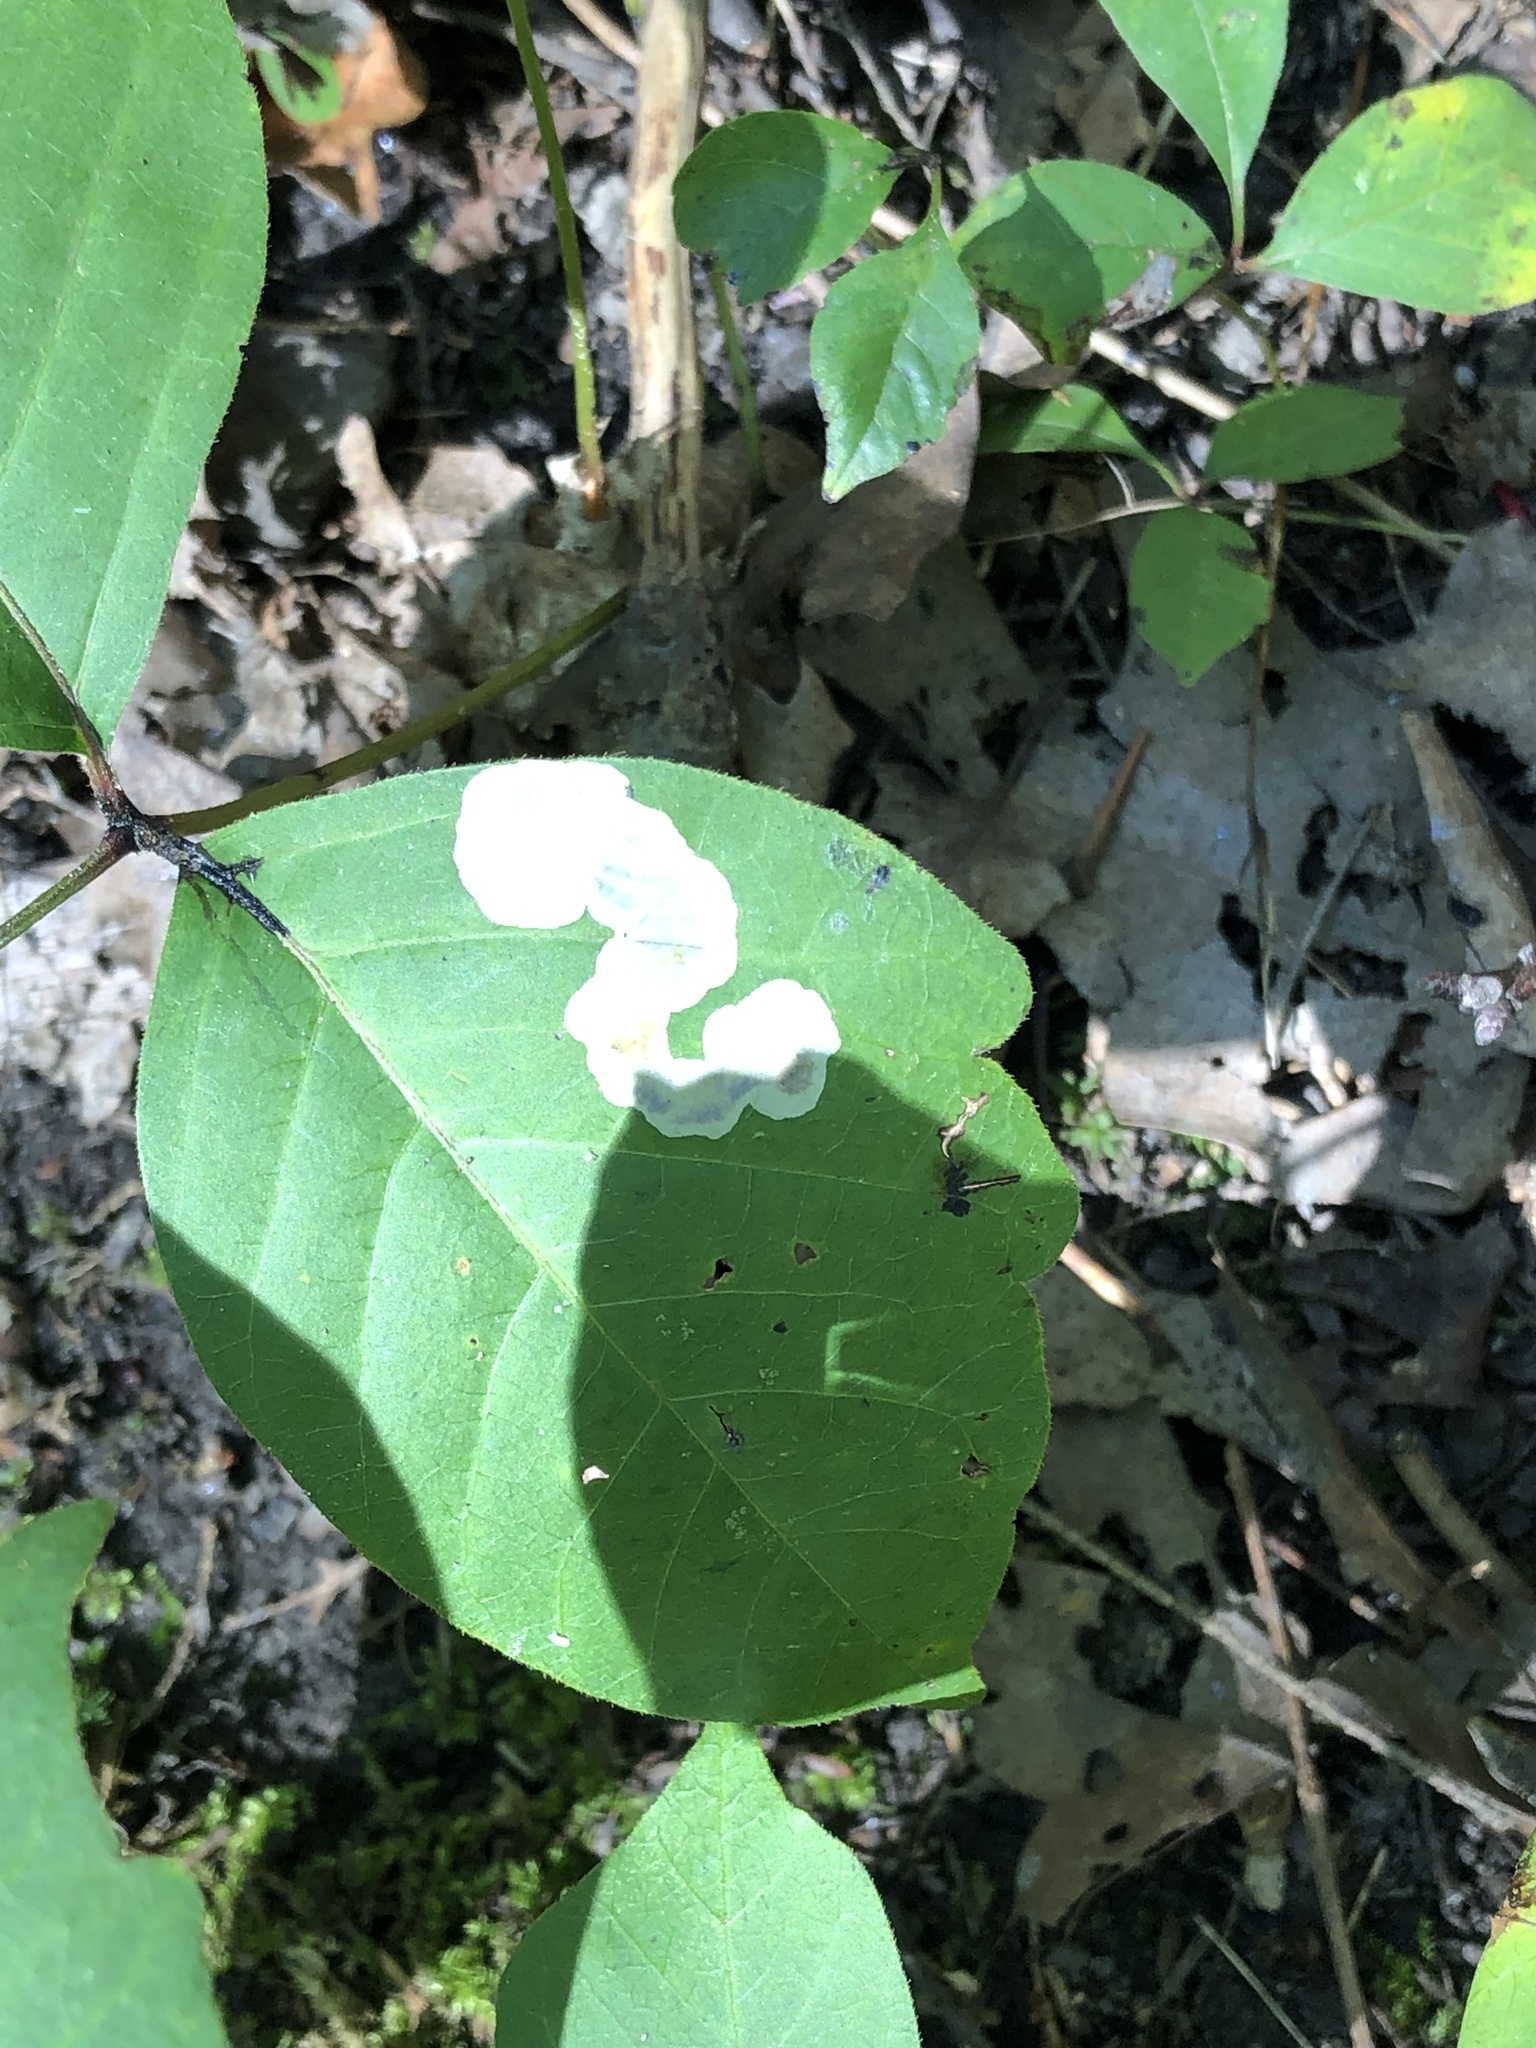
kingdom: Animalia
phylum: Arthropoda
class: Insecta
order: Lepidoptera
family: Gracillariidae
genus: Cameraria
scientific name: Cameraria guttifinitella
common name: Poison ivy leaf-miner moth
